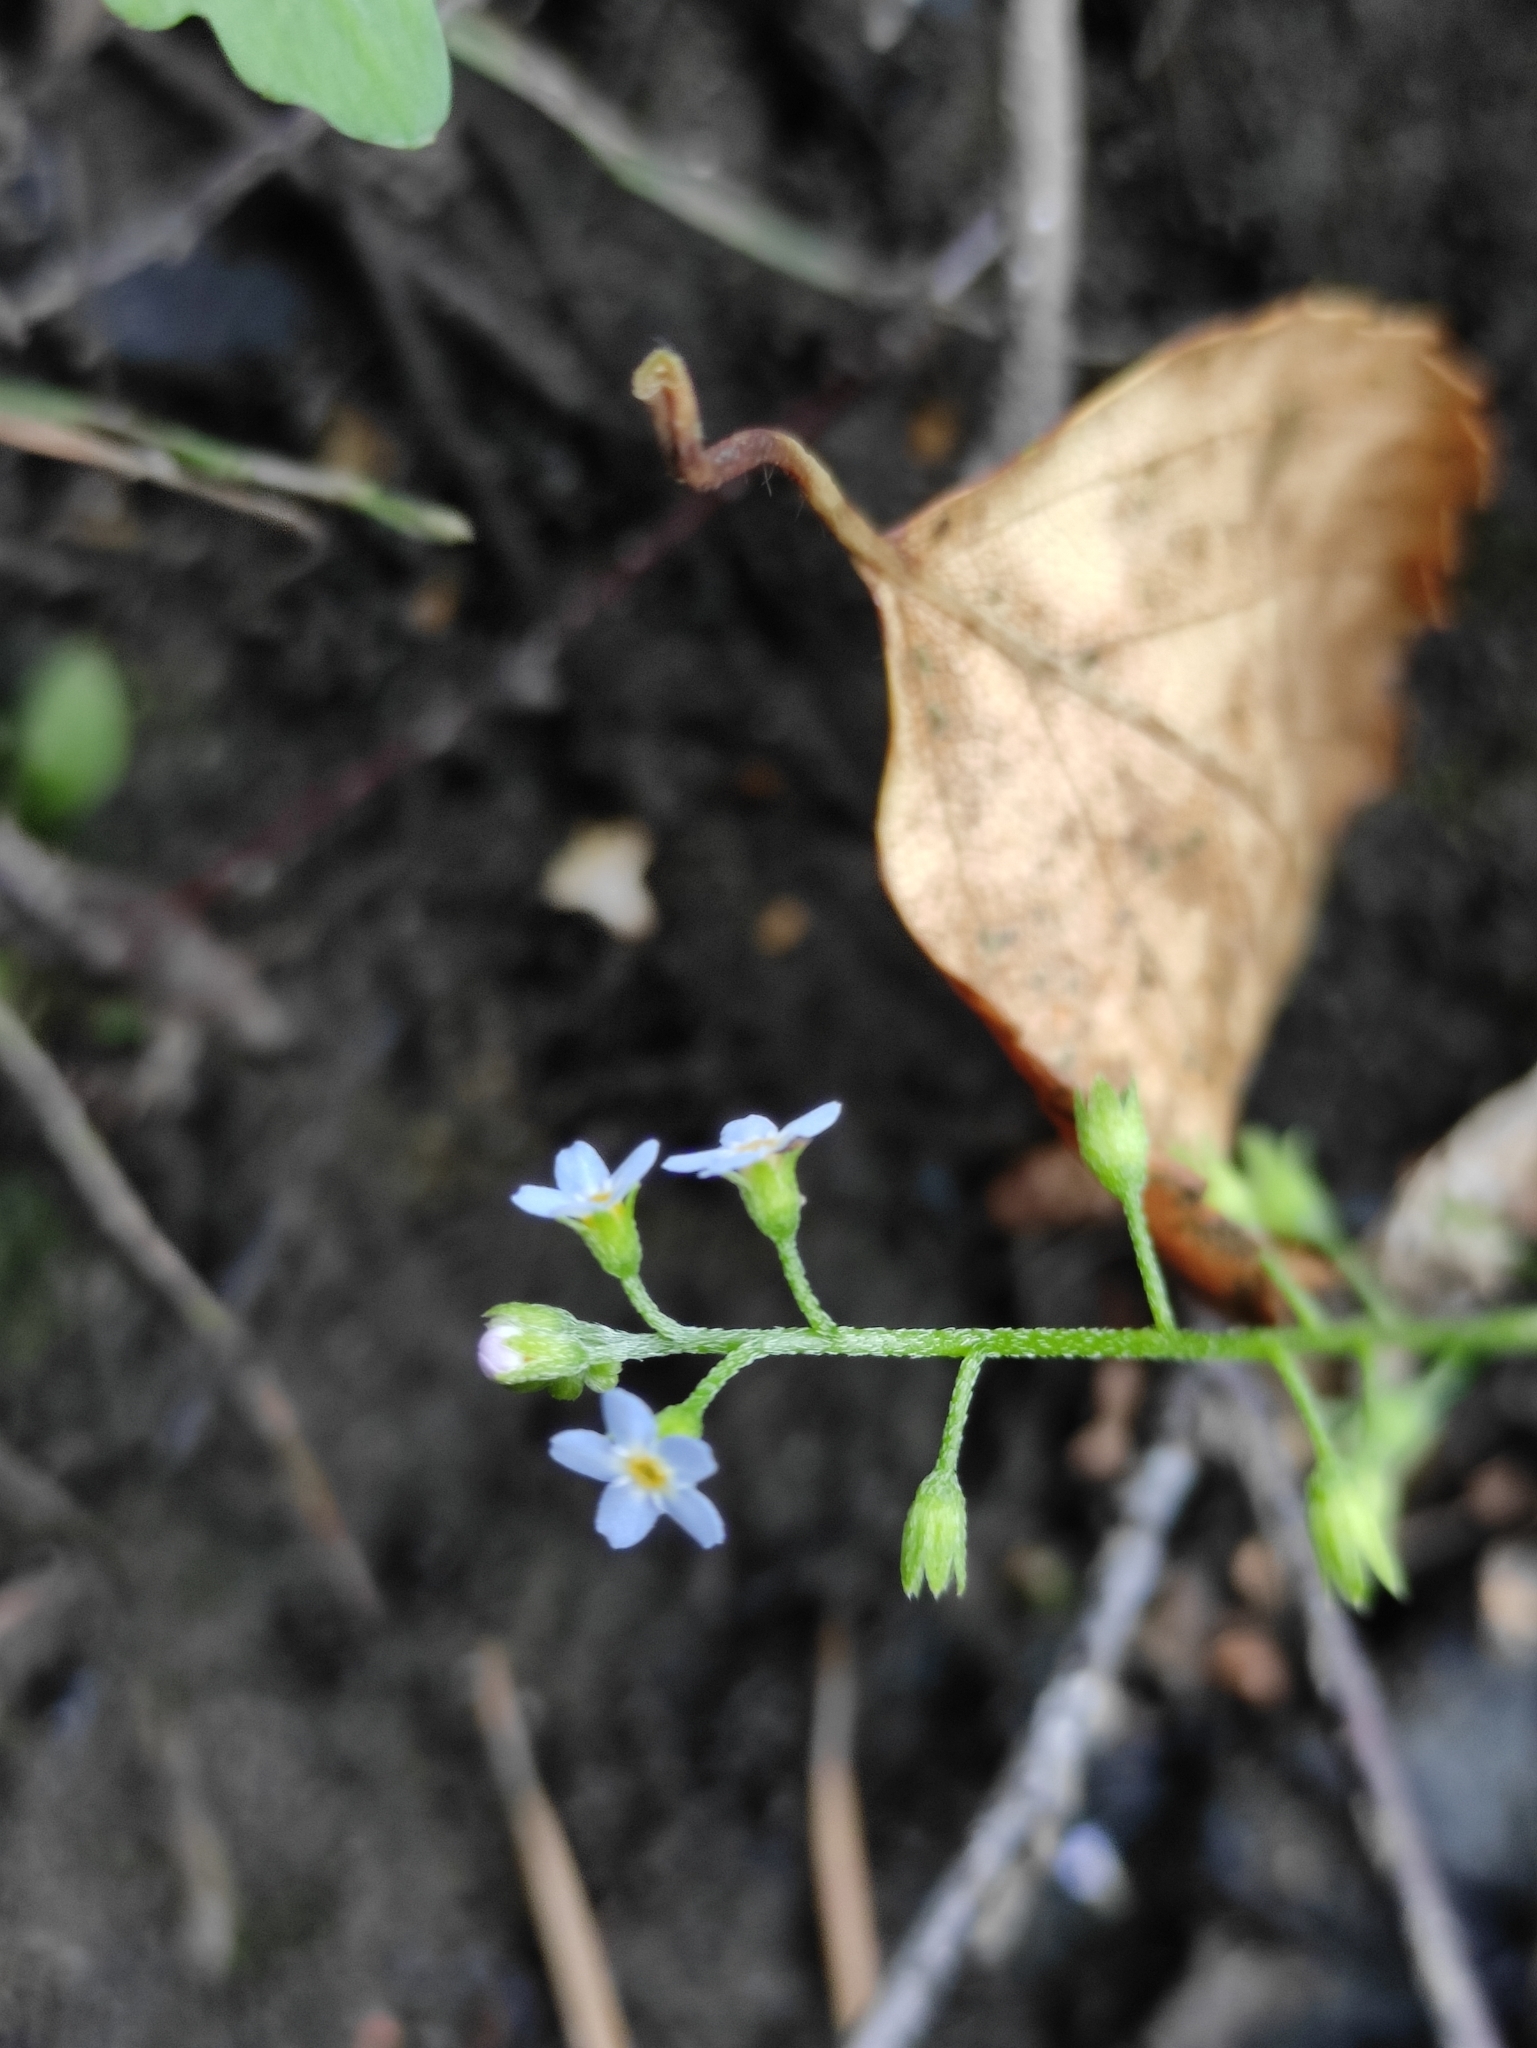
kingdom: Plantae
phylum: Tracheophyta
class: Magnoliopsida
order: Boraginales
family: Boraginaceae
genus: Myosotis
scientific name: Myosotis laxa
